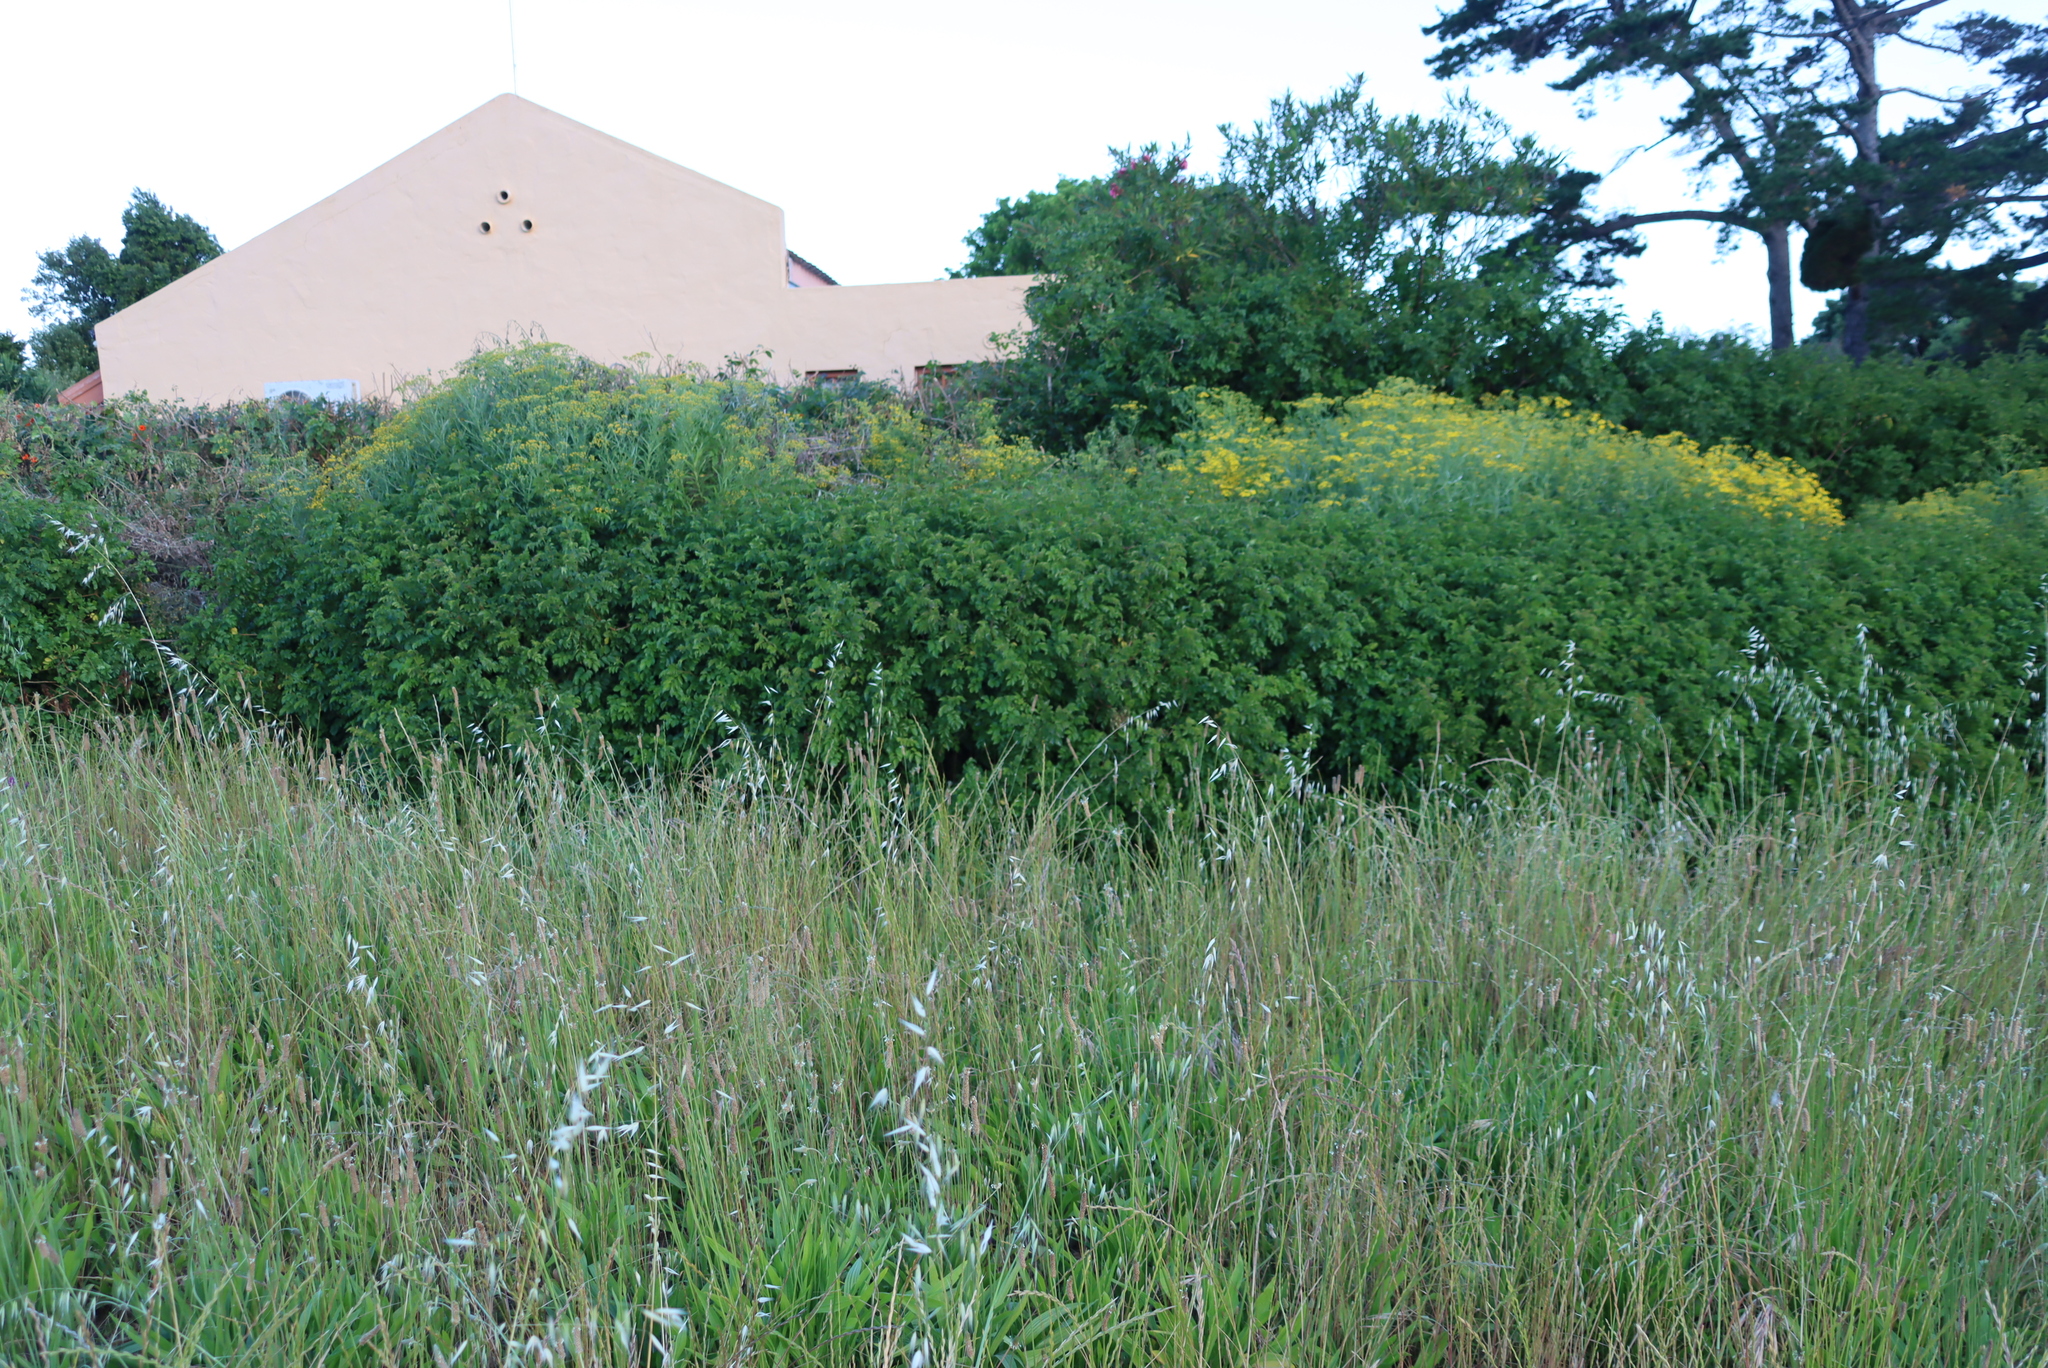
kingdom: Plantae
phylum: Tracheophyta
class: Magnoliopsida
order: Lamiales
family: Bignoniaceae
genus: Tecomaria
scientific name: Tecomaria capensis
